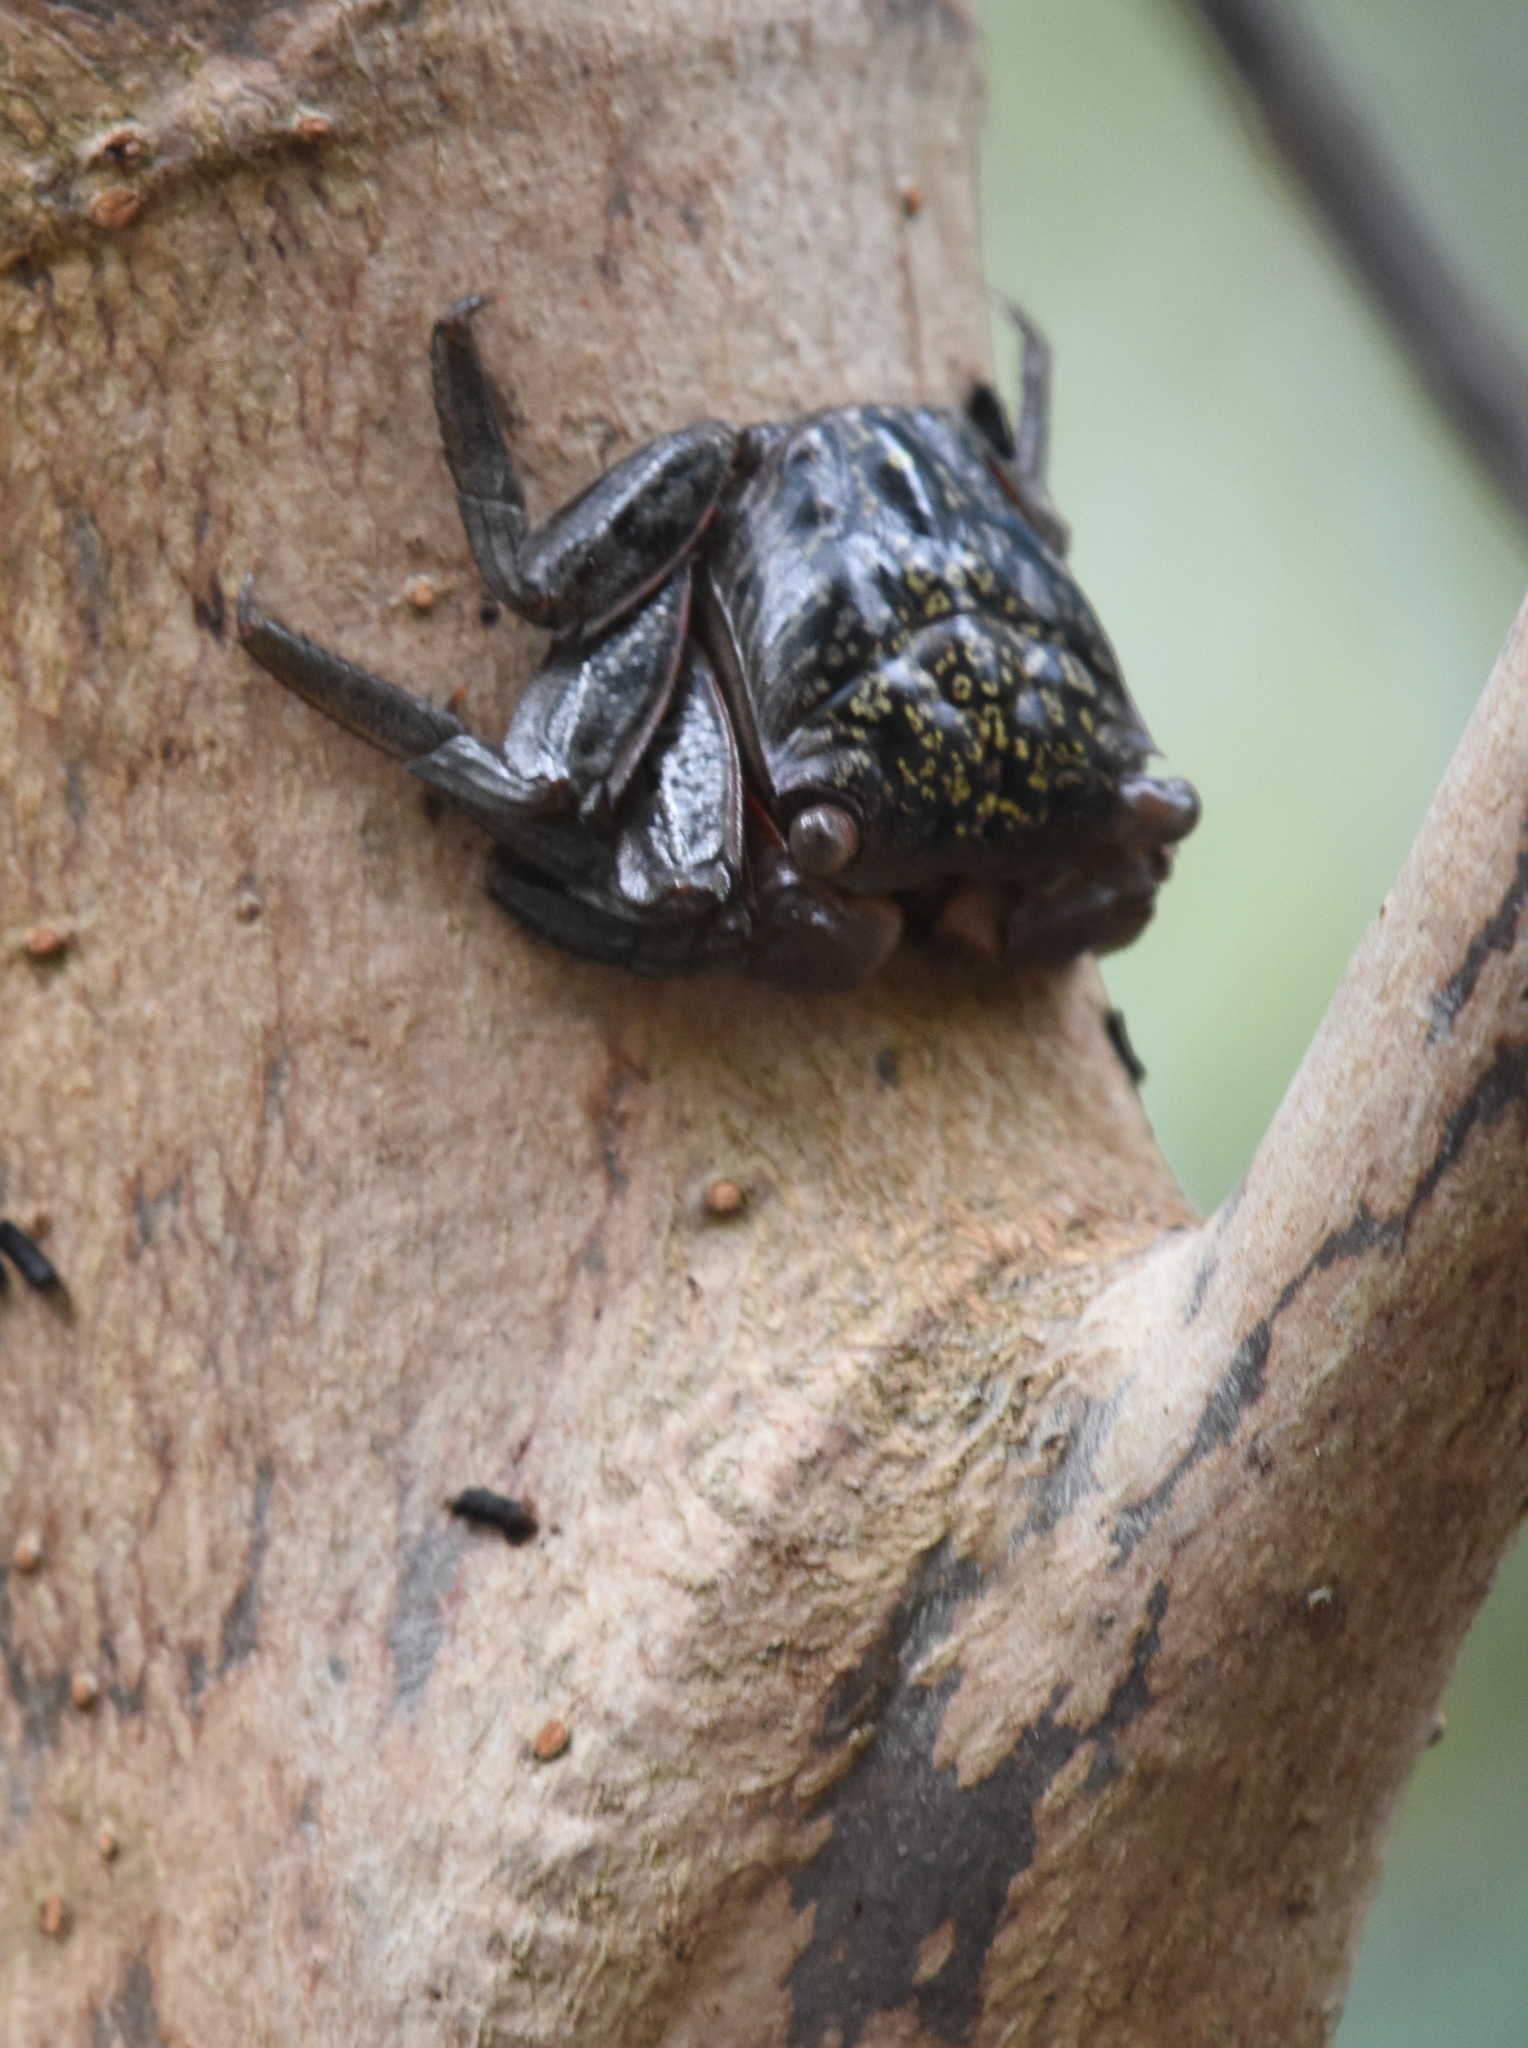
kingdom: Animalia
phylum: Arthropoda
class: Malacostraca
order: Decapoda
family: Sesarmidae
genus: Aratus
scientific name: Aratus pisonii
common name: Mangrove crab
